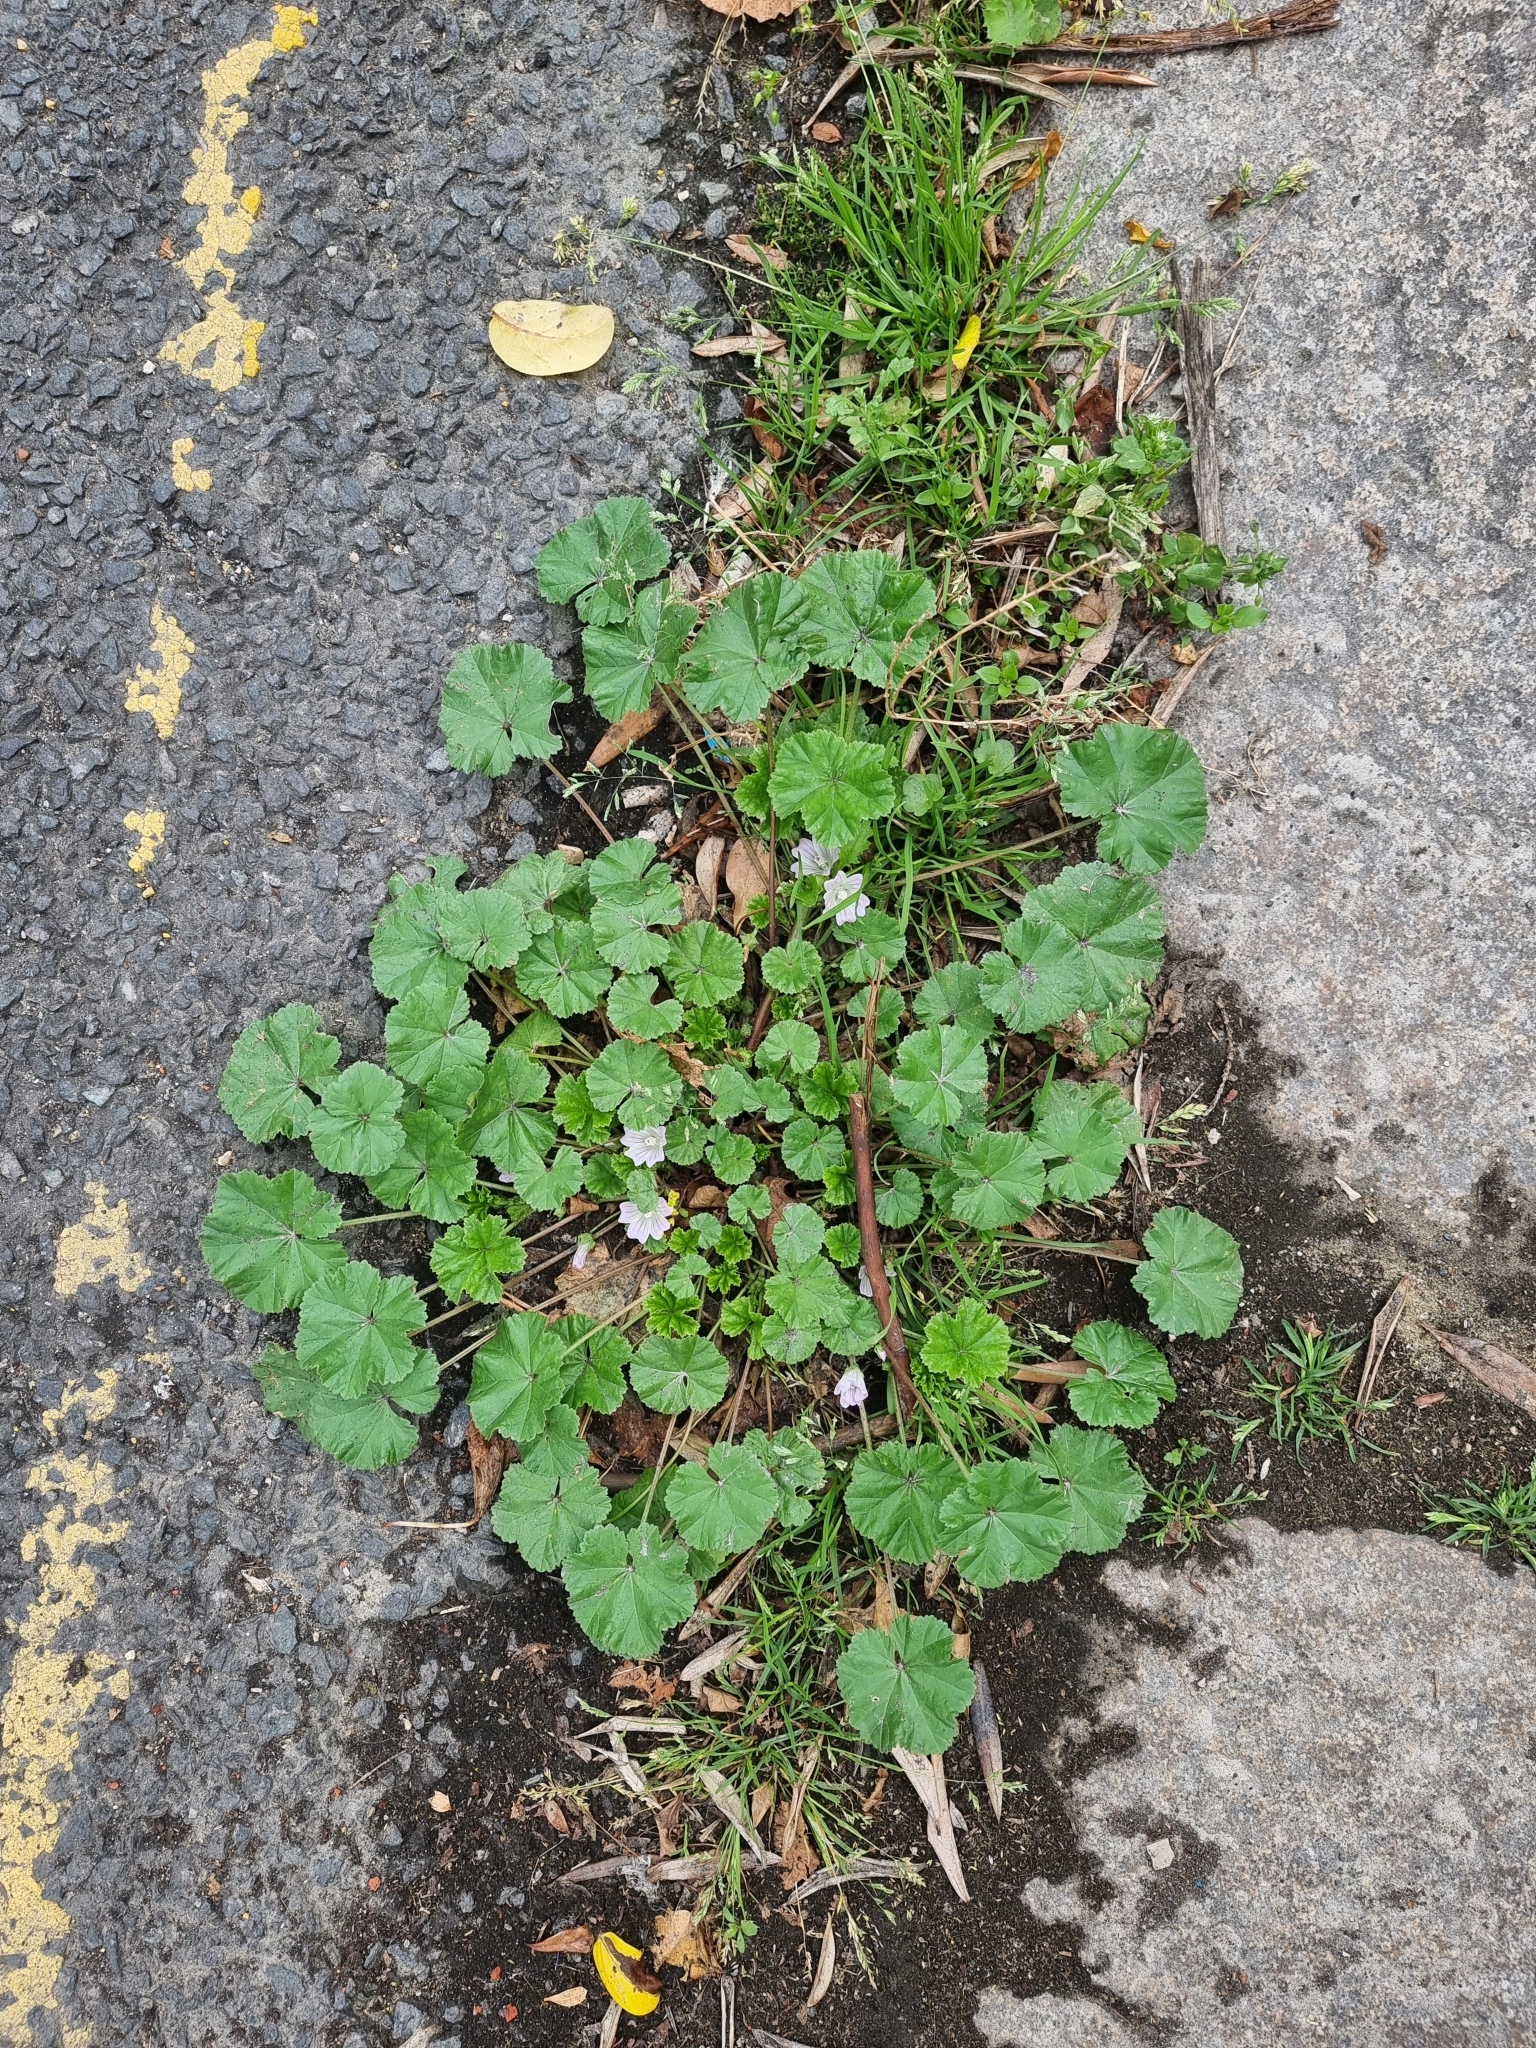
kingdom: Plantae
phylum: Tracheophyta
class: Magnoliopsida
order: Malvales
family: Malvaceae
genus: Malva
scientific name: Malva neglecta
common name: Common mallow
